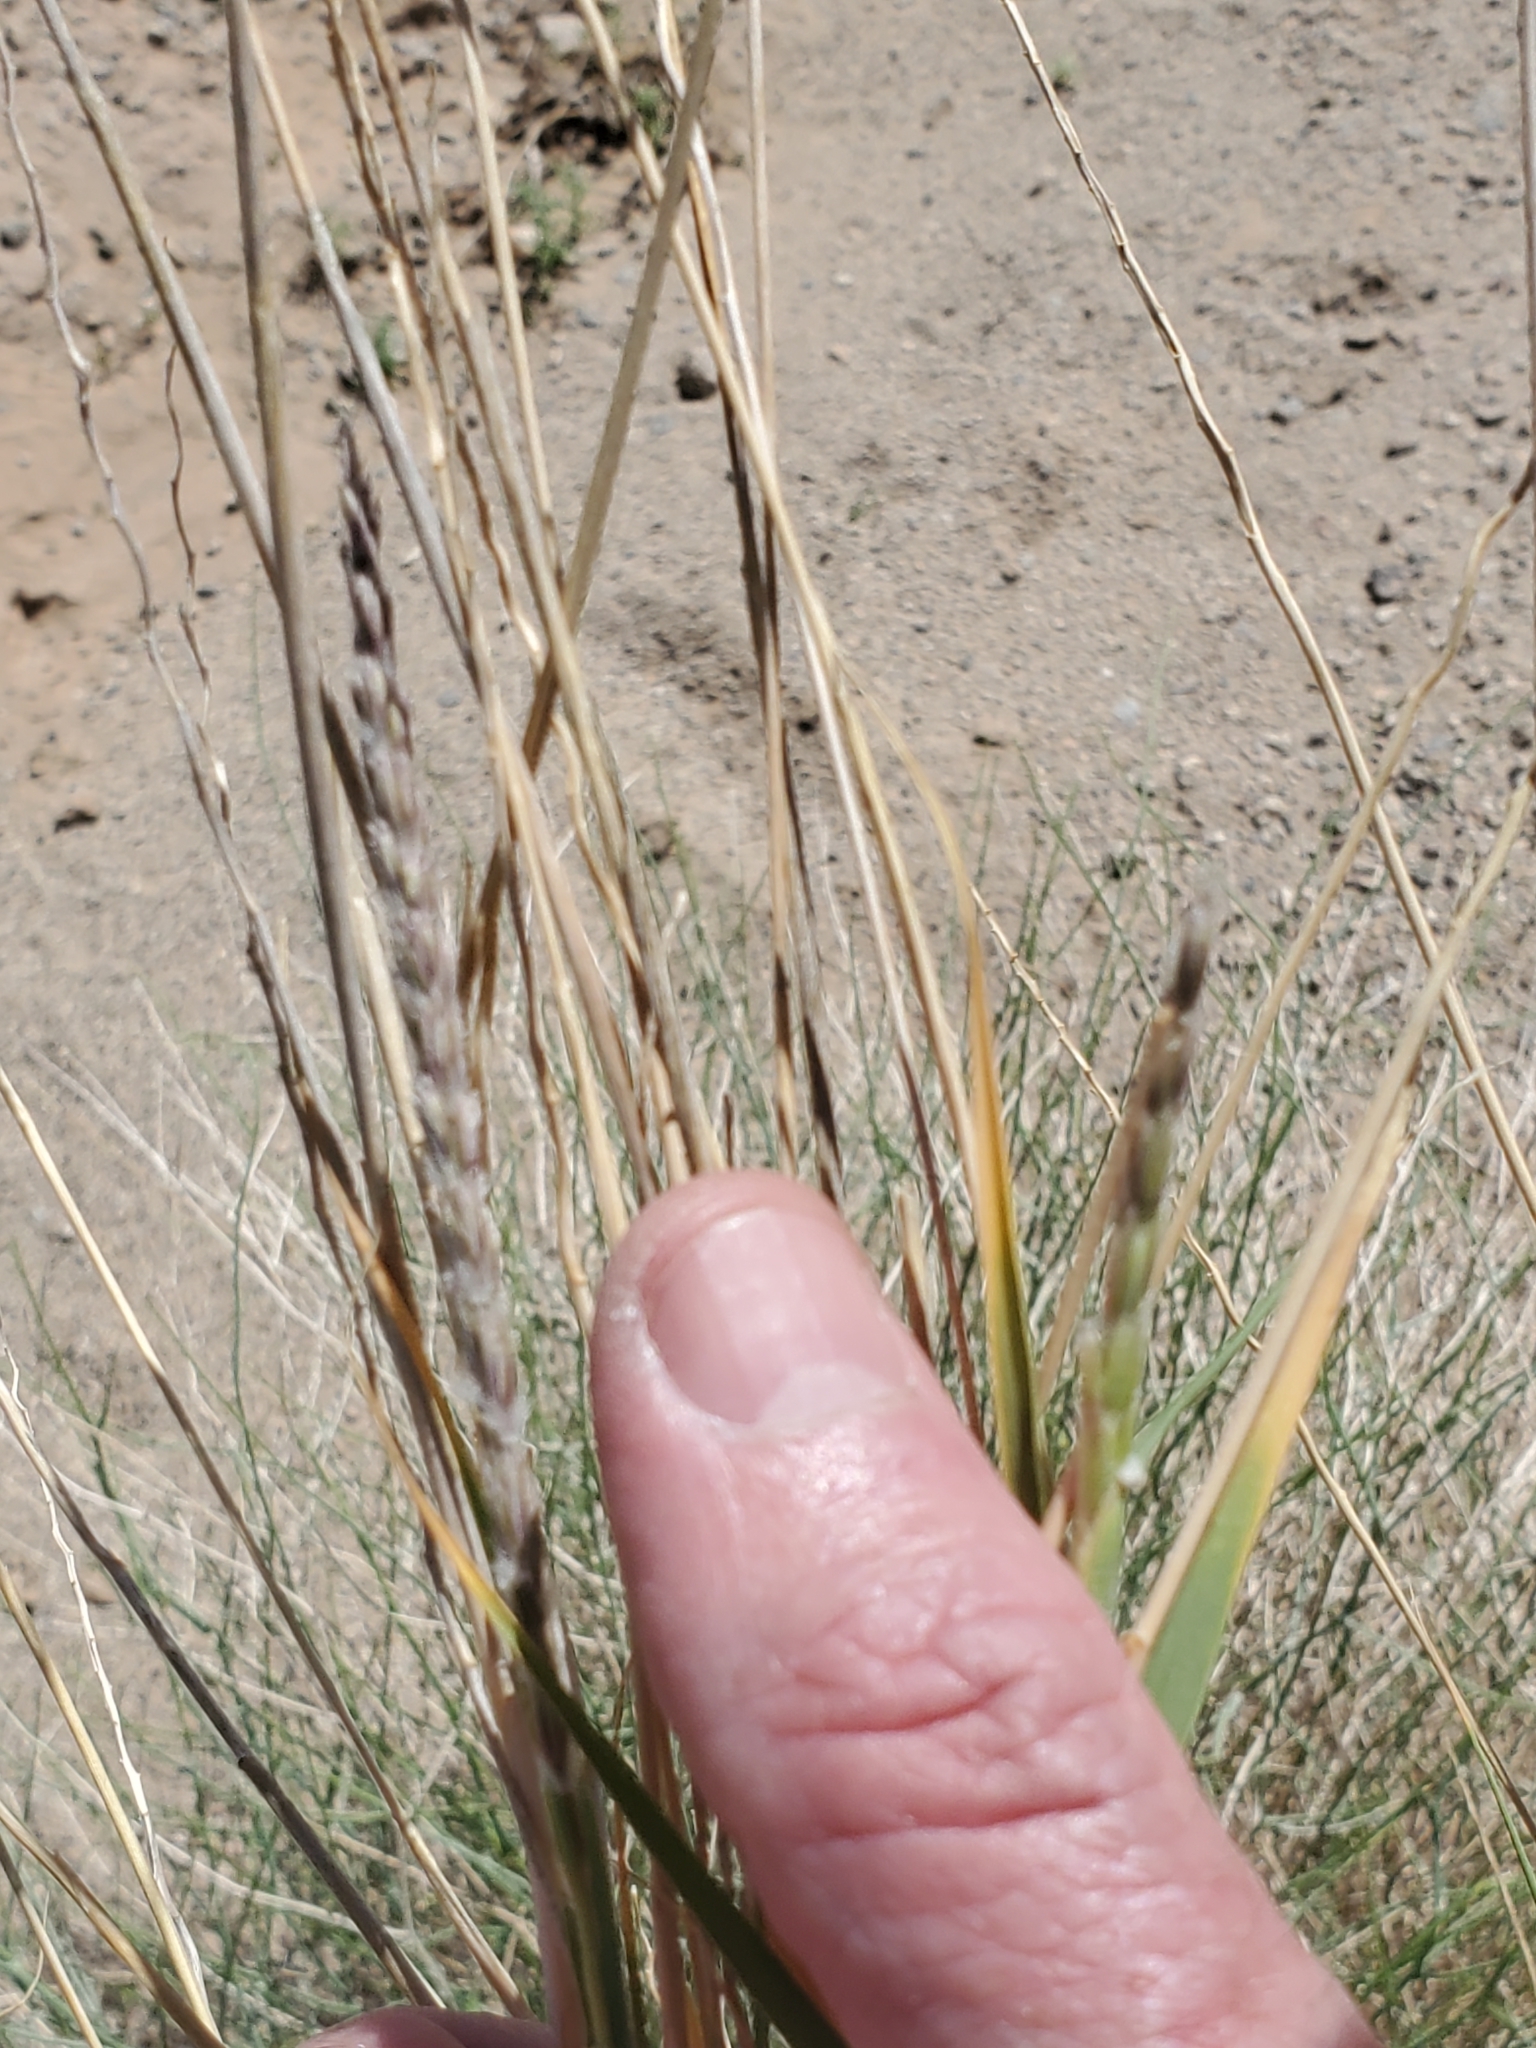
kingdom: Plantae
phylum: Tracheophyta
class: Liliopsida
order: Poales
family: Poaceae
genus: Hilaria
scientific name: Hilaria rigida
